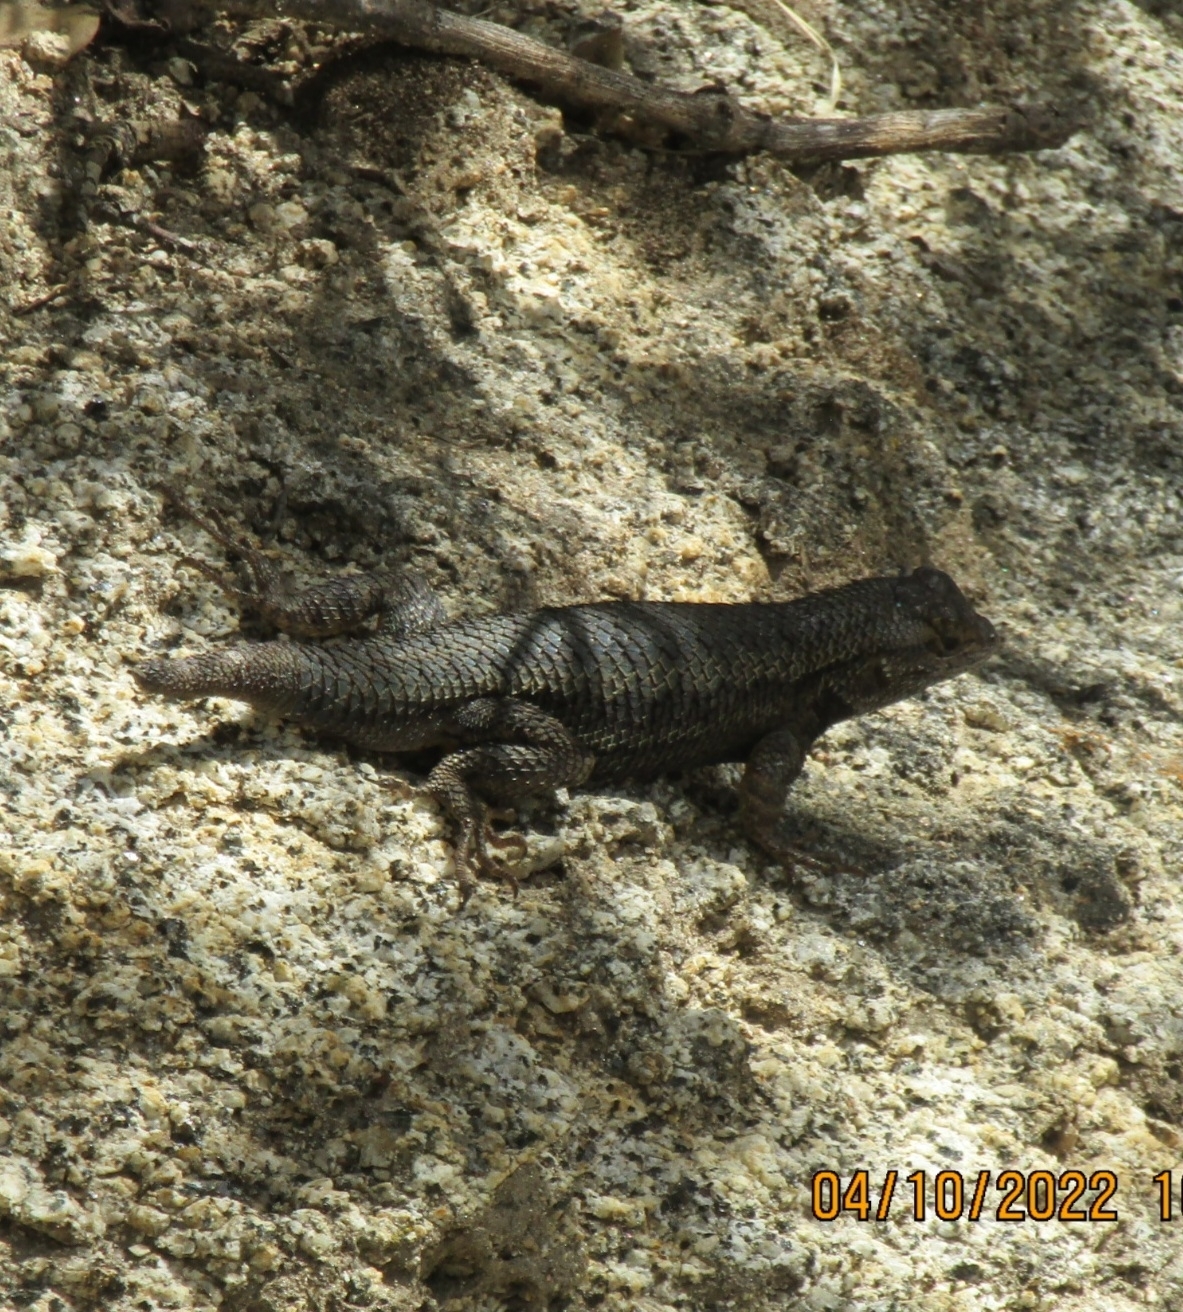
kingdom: Animalia
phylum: Chordata
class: Squamata
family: Phrynosomatidae
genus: Sceloporus
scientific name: Sceloporus occidentalis
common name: Western fence lizard
